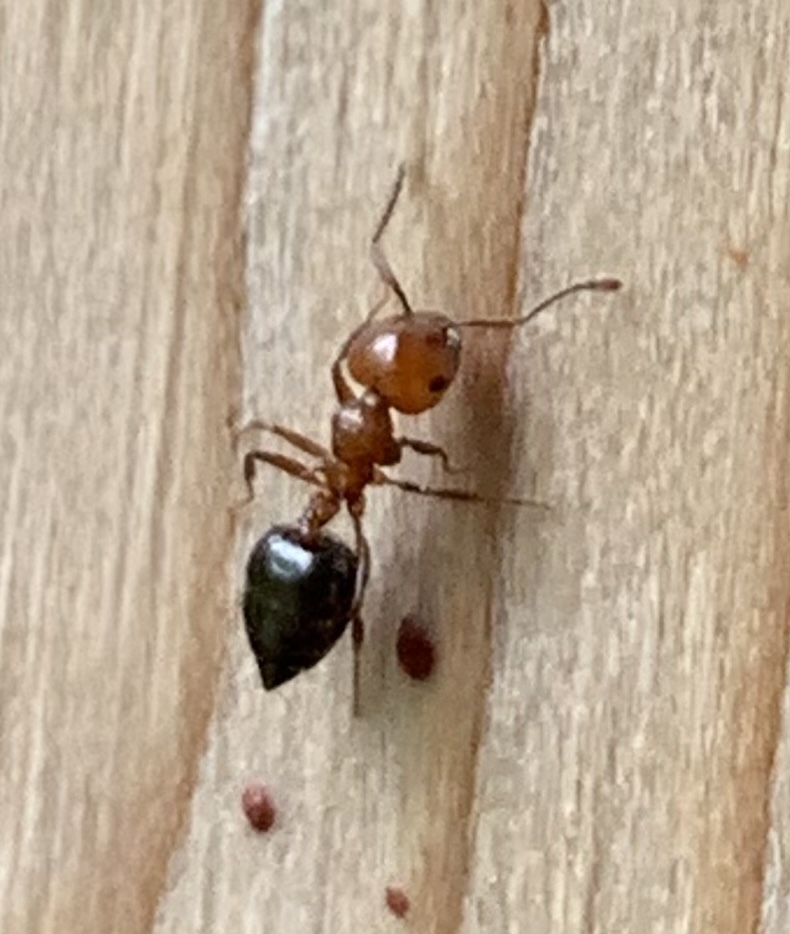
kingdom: Animalia
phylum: Arthropoda
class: Insecta
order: Hymenoptera
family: Formicidae
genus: Crematogaster
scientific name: Crematogaster laeviuscula
